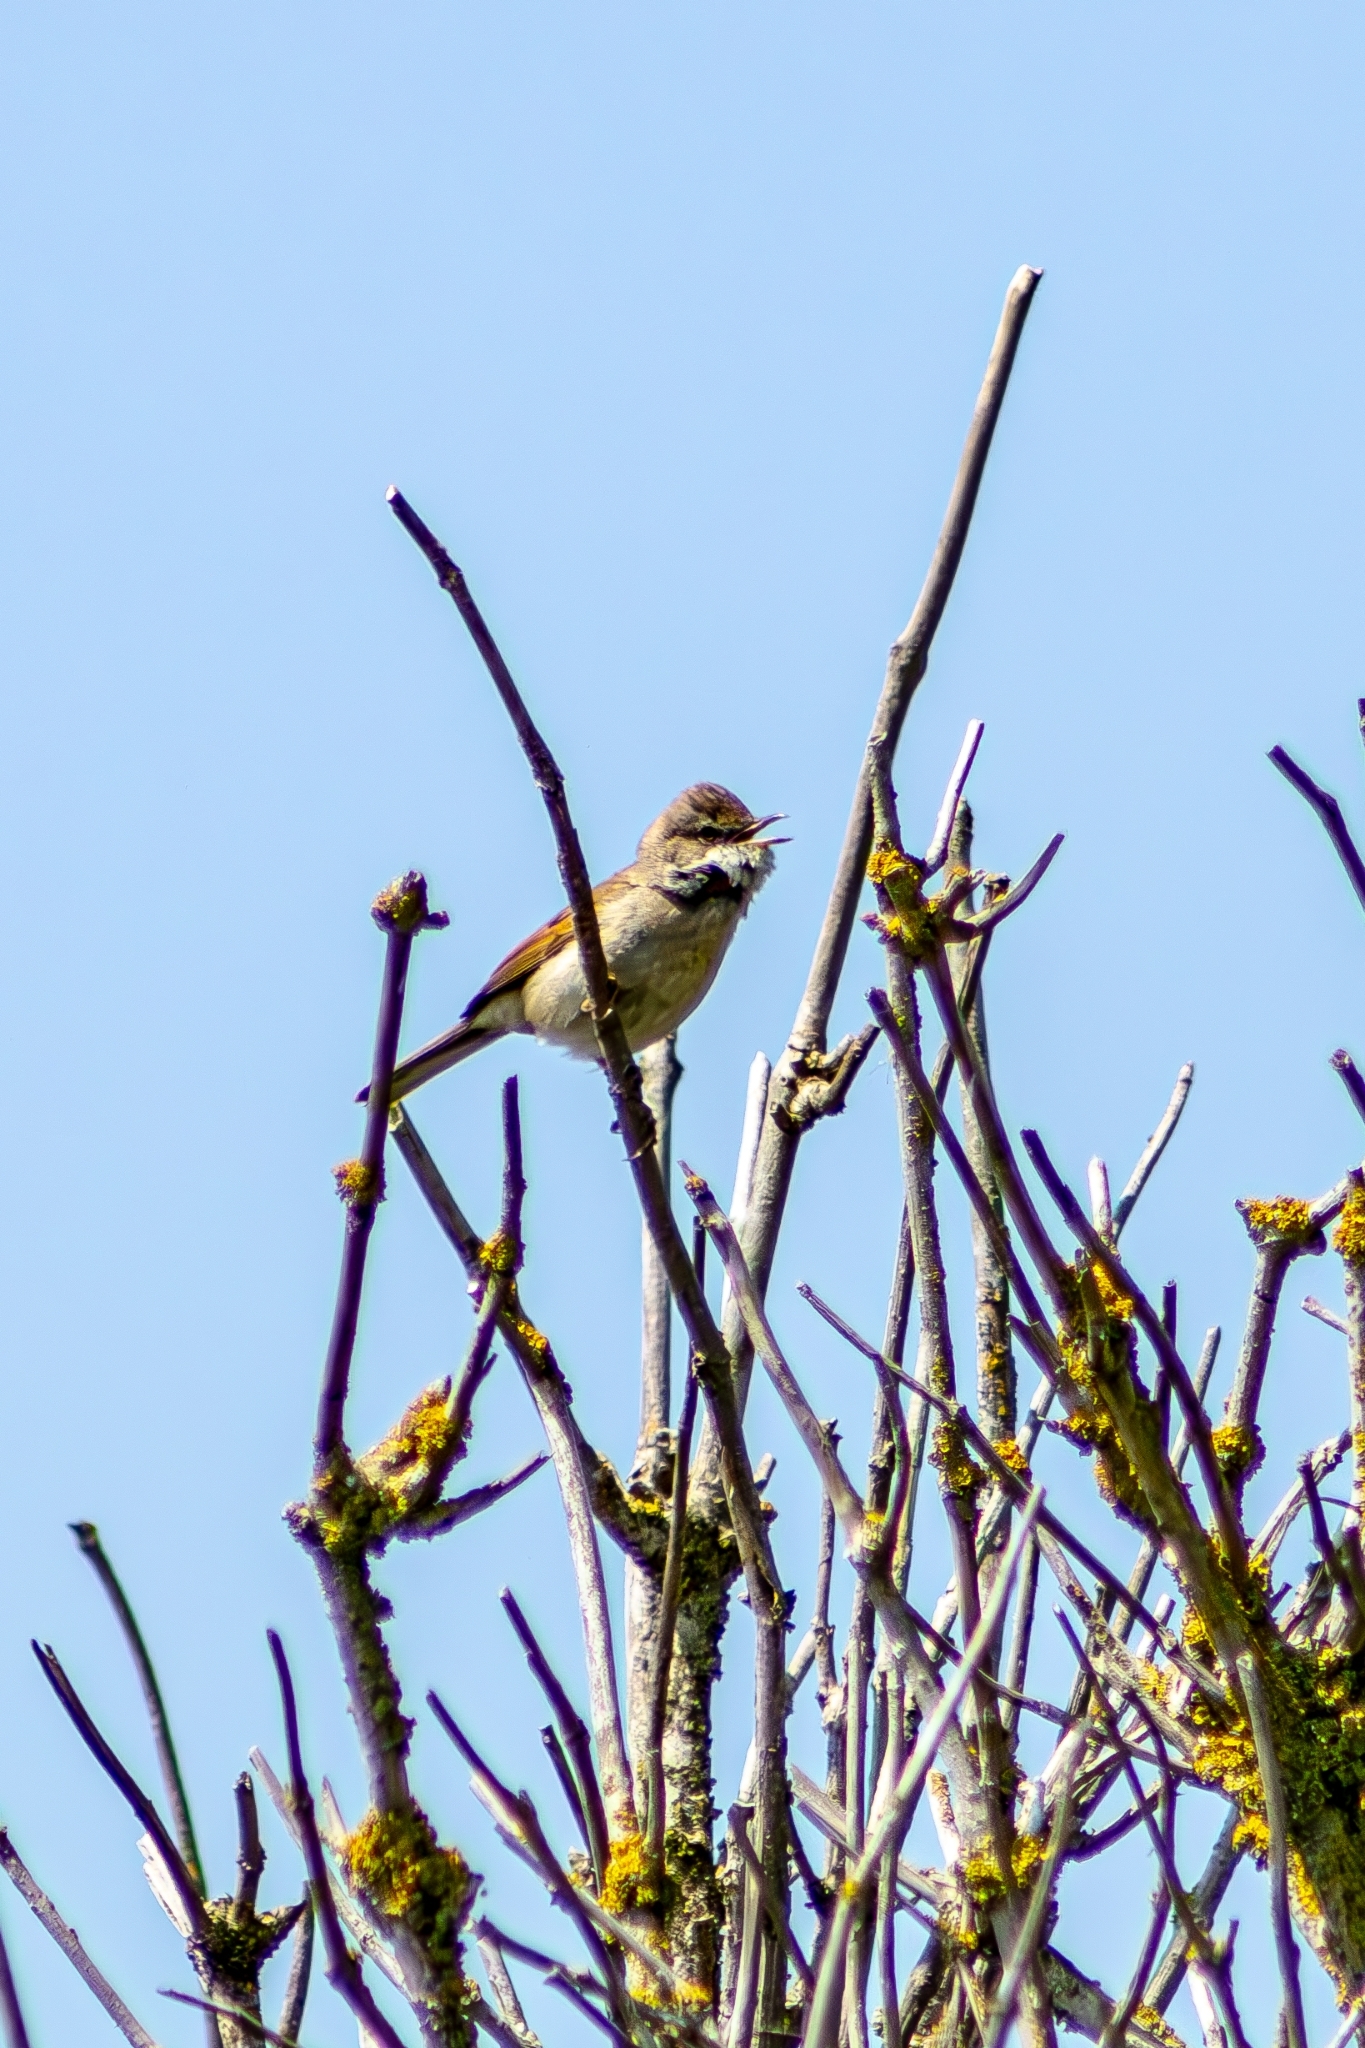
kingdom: Animalia
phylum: Chordata
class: Aves
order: Passeriformes
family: Sylviidae
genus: Sylvia
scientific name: Sylvia communis
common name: Common whitethroat
